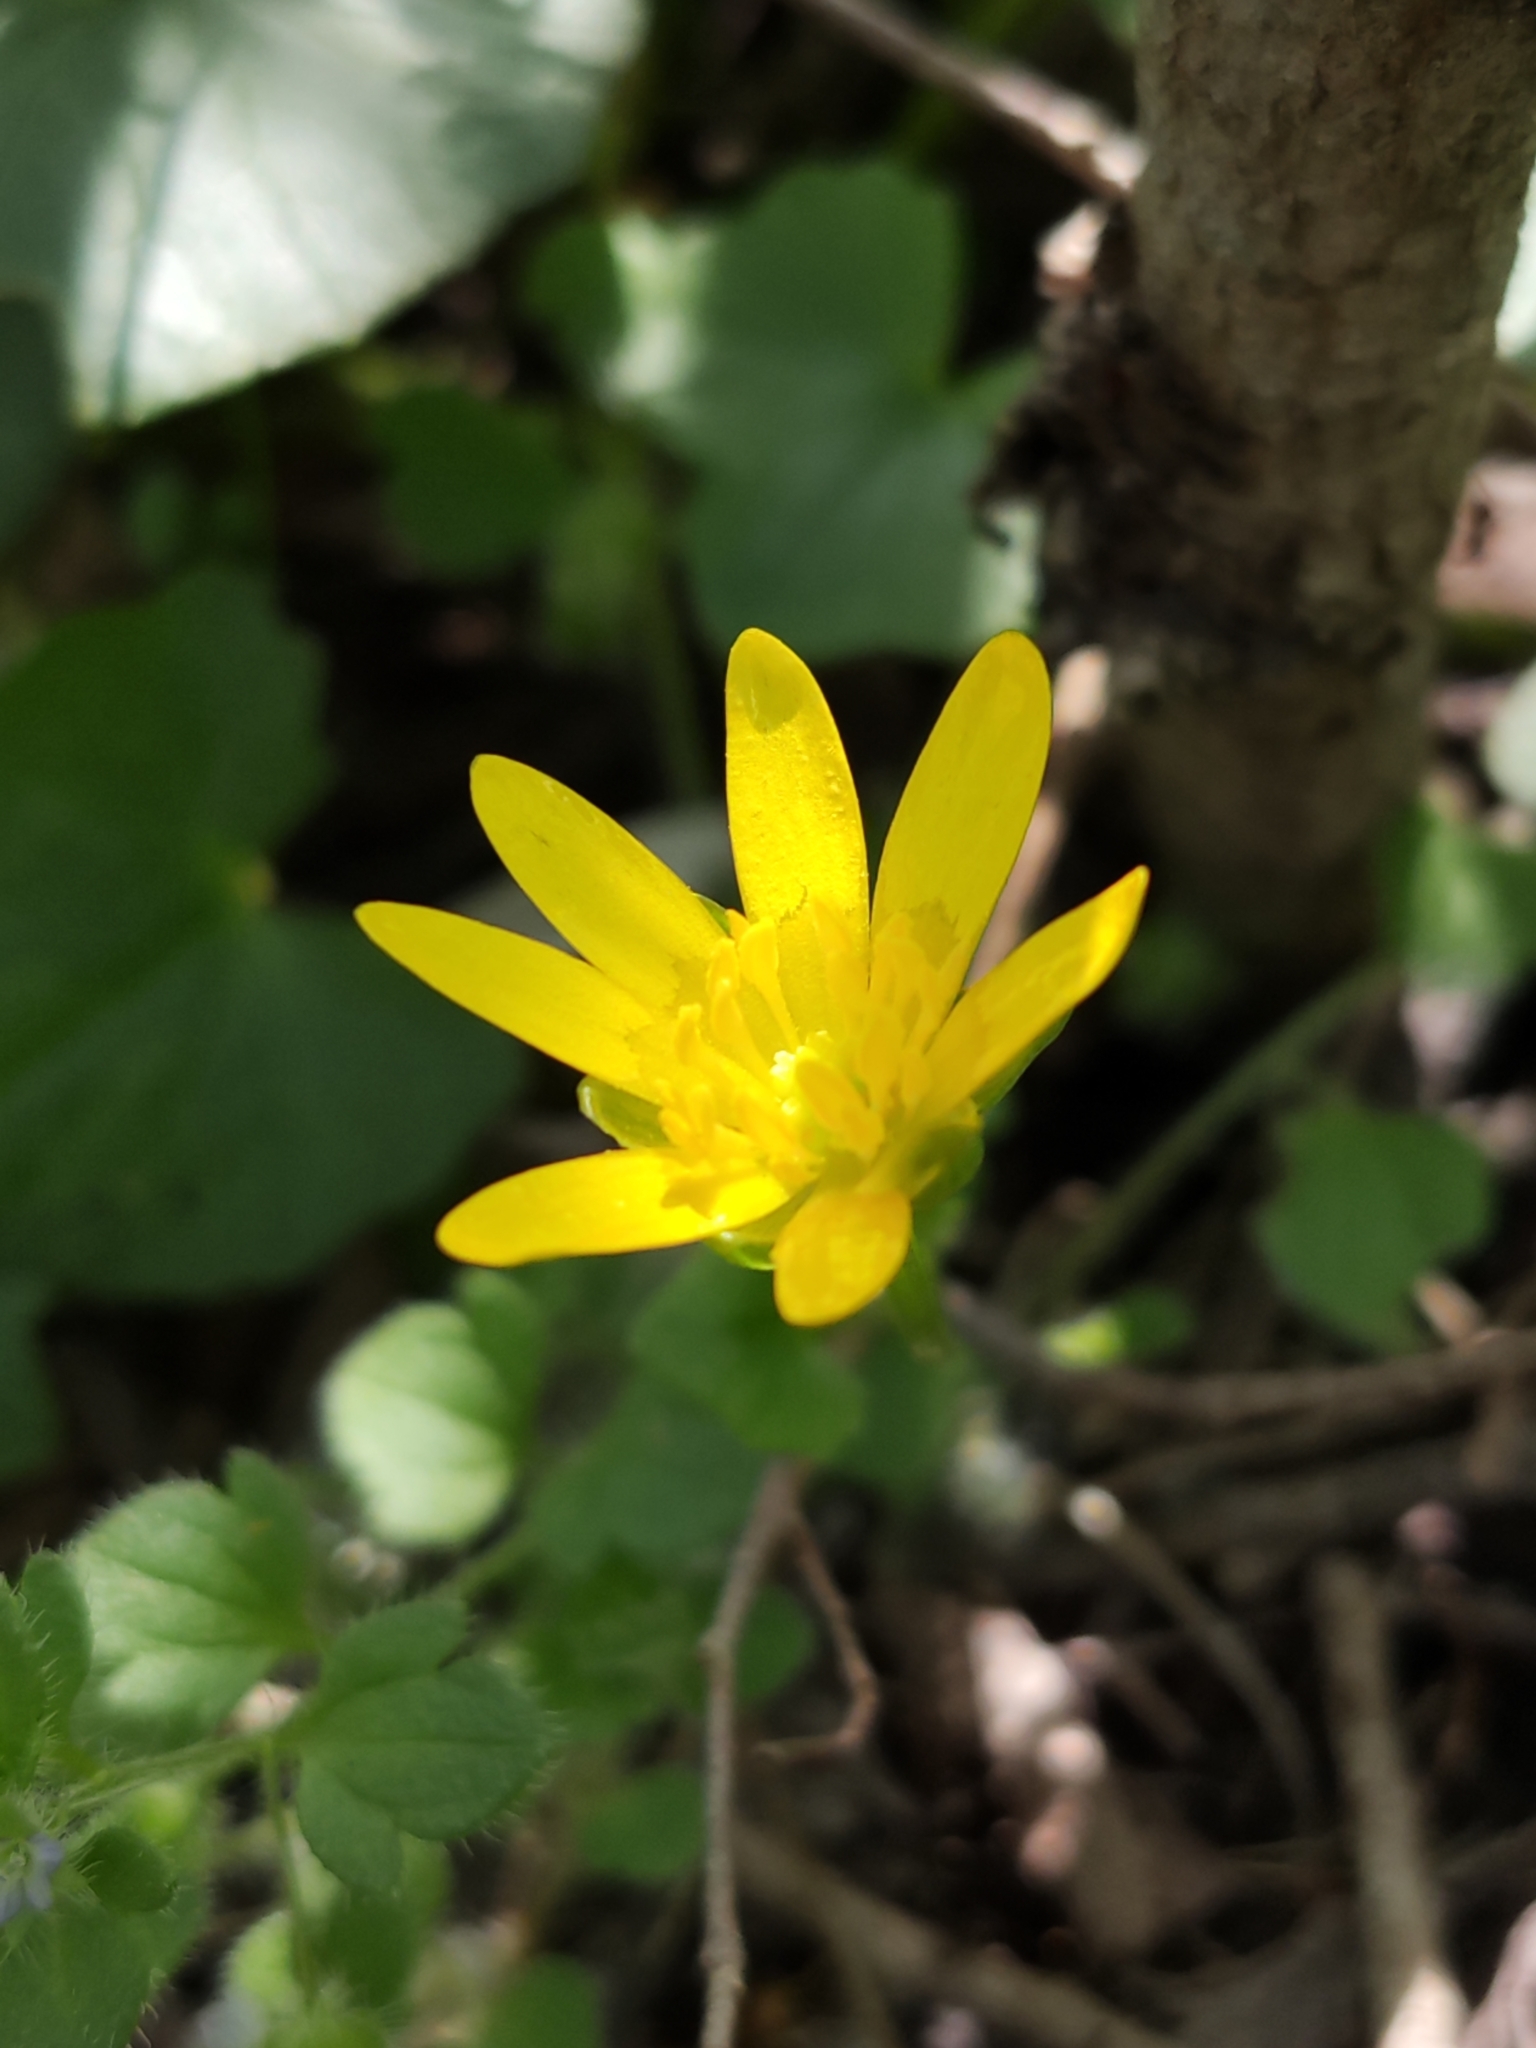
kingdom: Plantae
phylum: Tracheophyta
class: Magnoliopsida
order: Ranunculales
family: Ranunculaceae
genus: Ficaria
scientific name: Ficaria verna
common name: Lesser celandine
